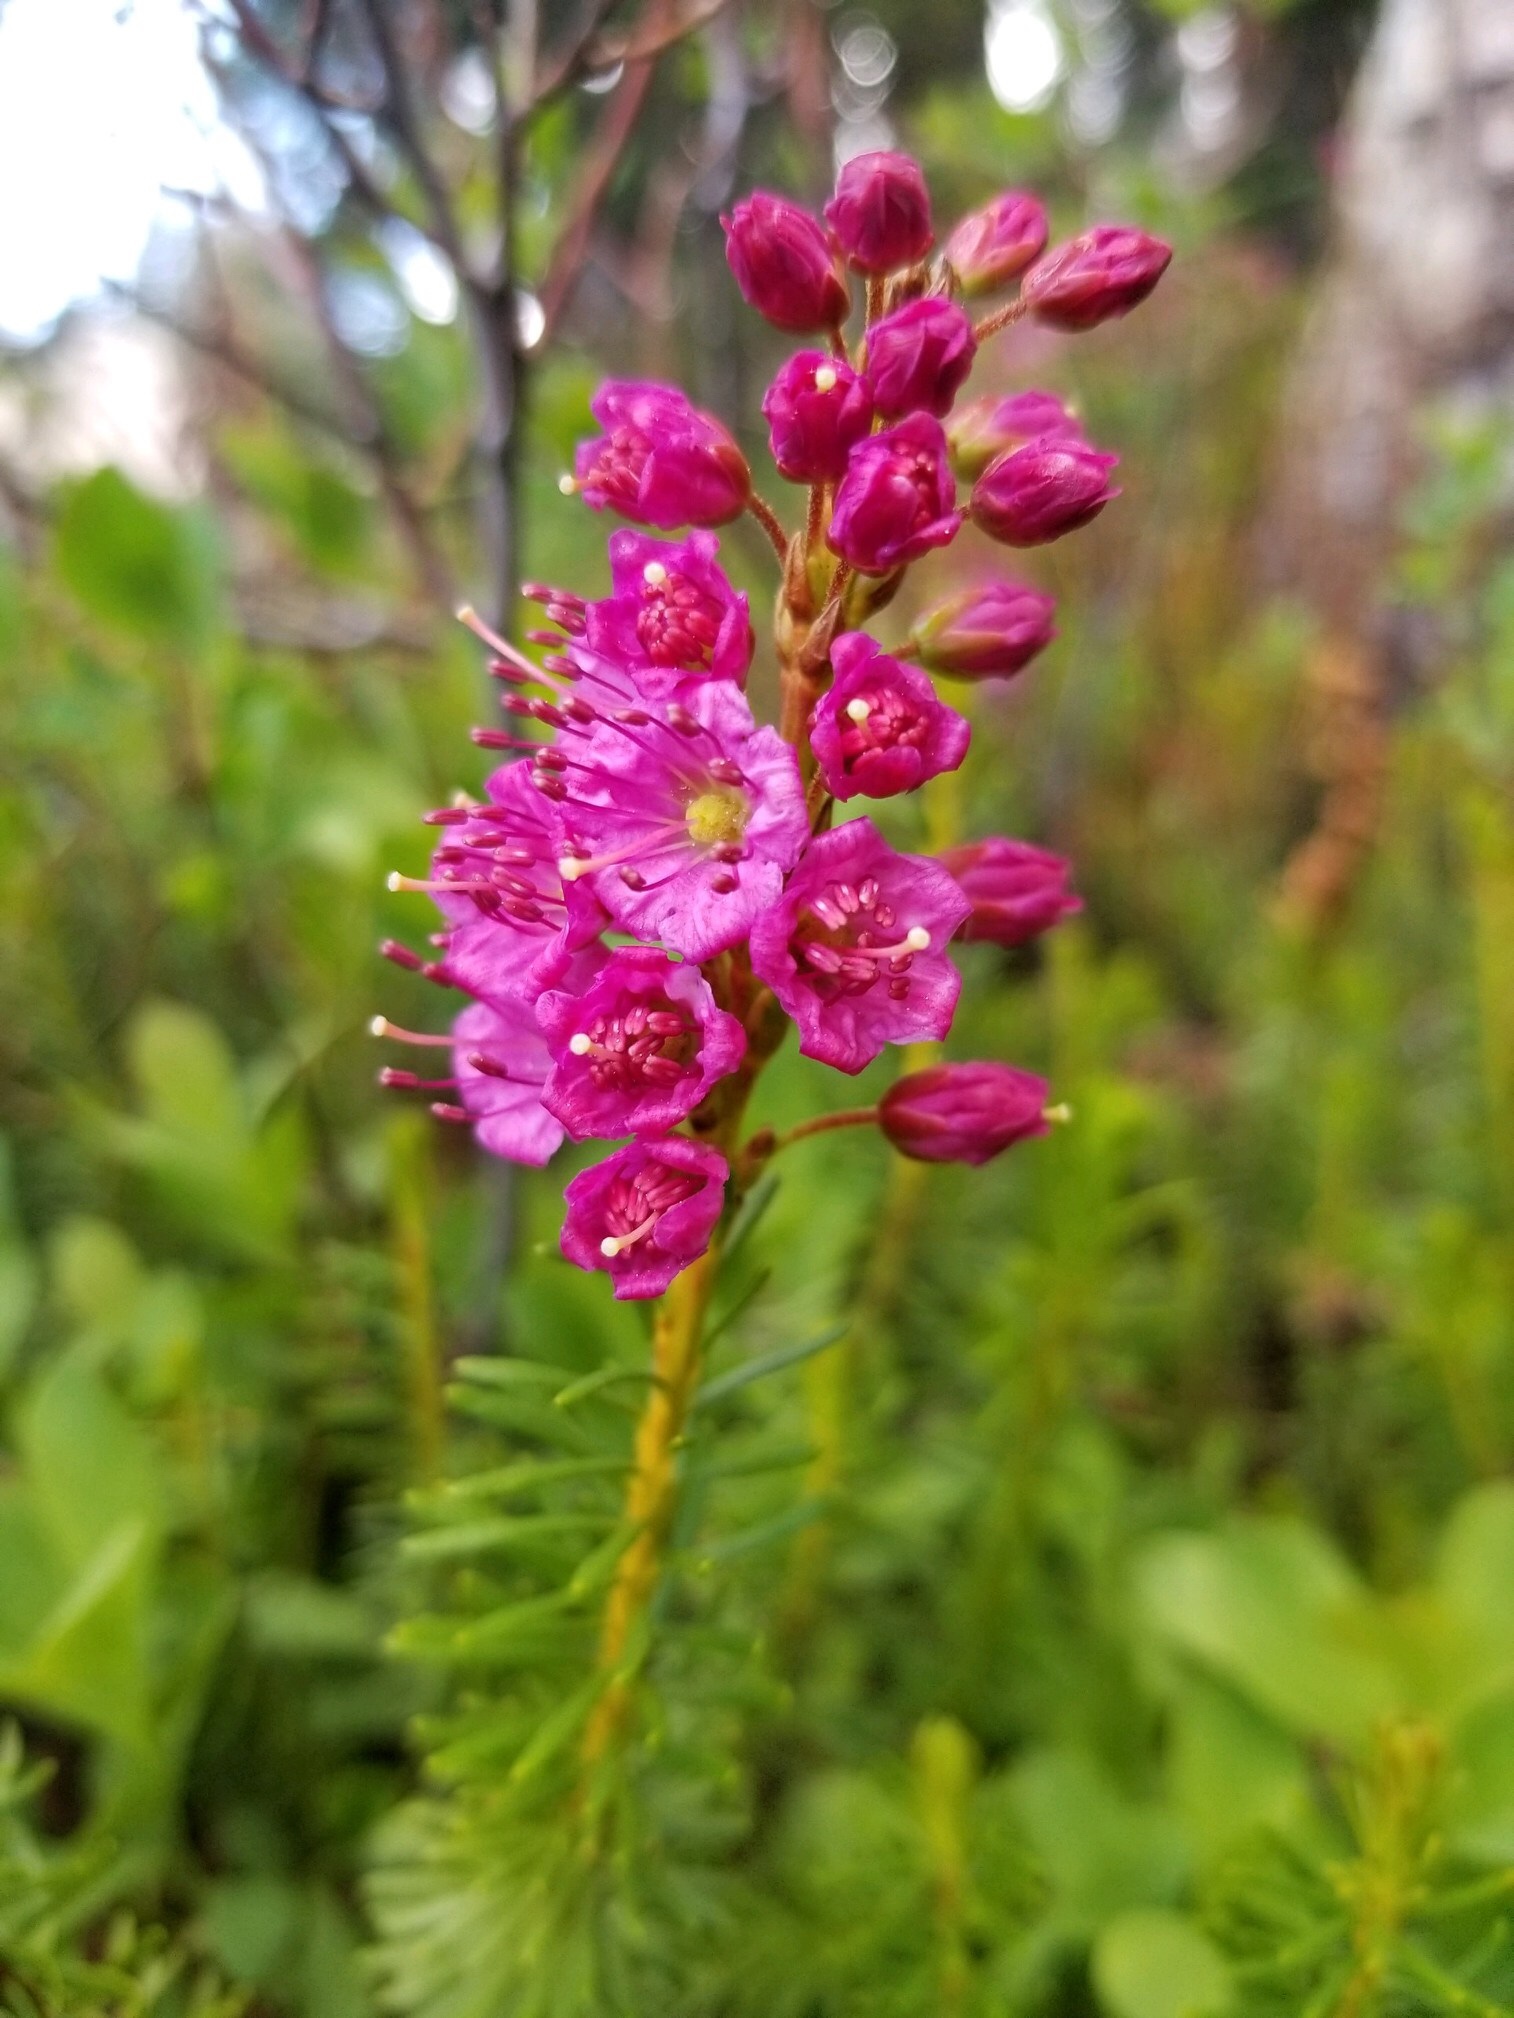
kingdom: Plantae
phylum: Tracheophyta
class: Magnoliopsida
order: Ericales
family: Ericaceae
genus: Phyllodoce
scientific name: Phyllodoce breweri
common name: Brewer's mountain-heather
